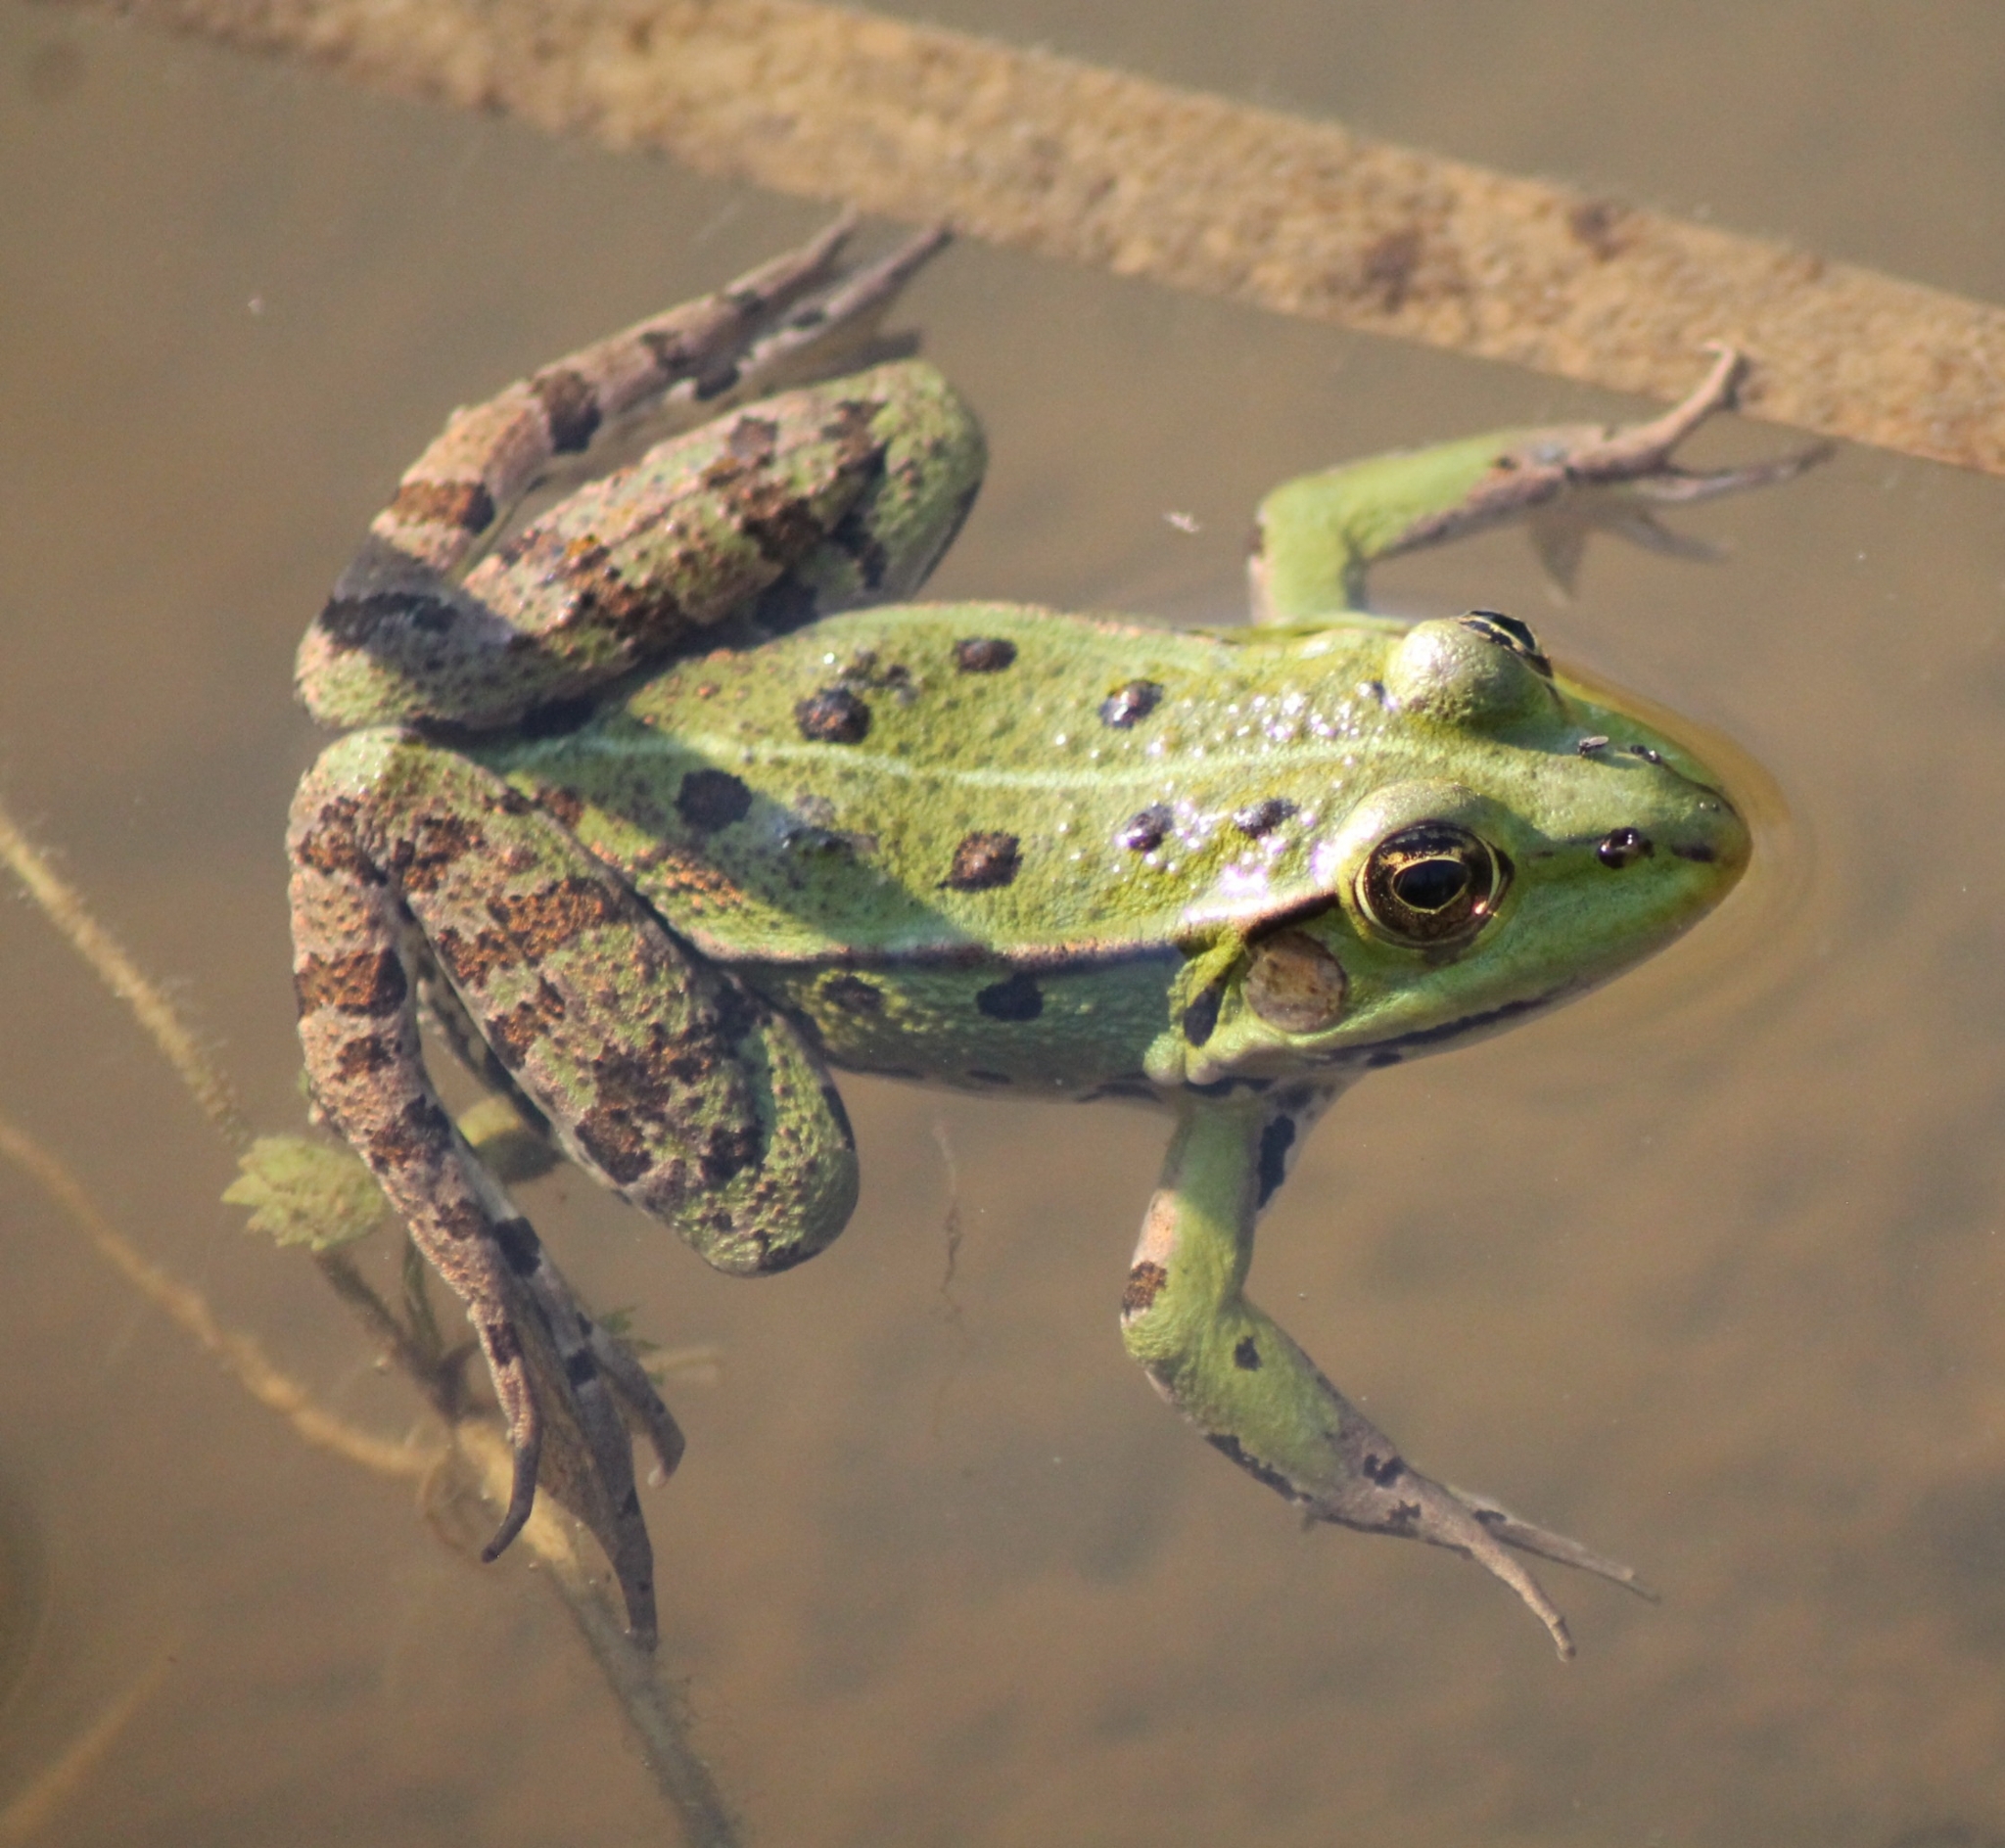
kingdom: Animalia
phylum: Chordata
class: Amphibia
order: Anura
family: Ranidae
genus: Pelophylax
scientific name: Pelophylax
